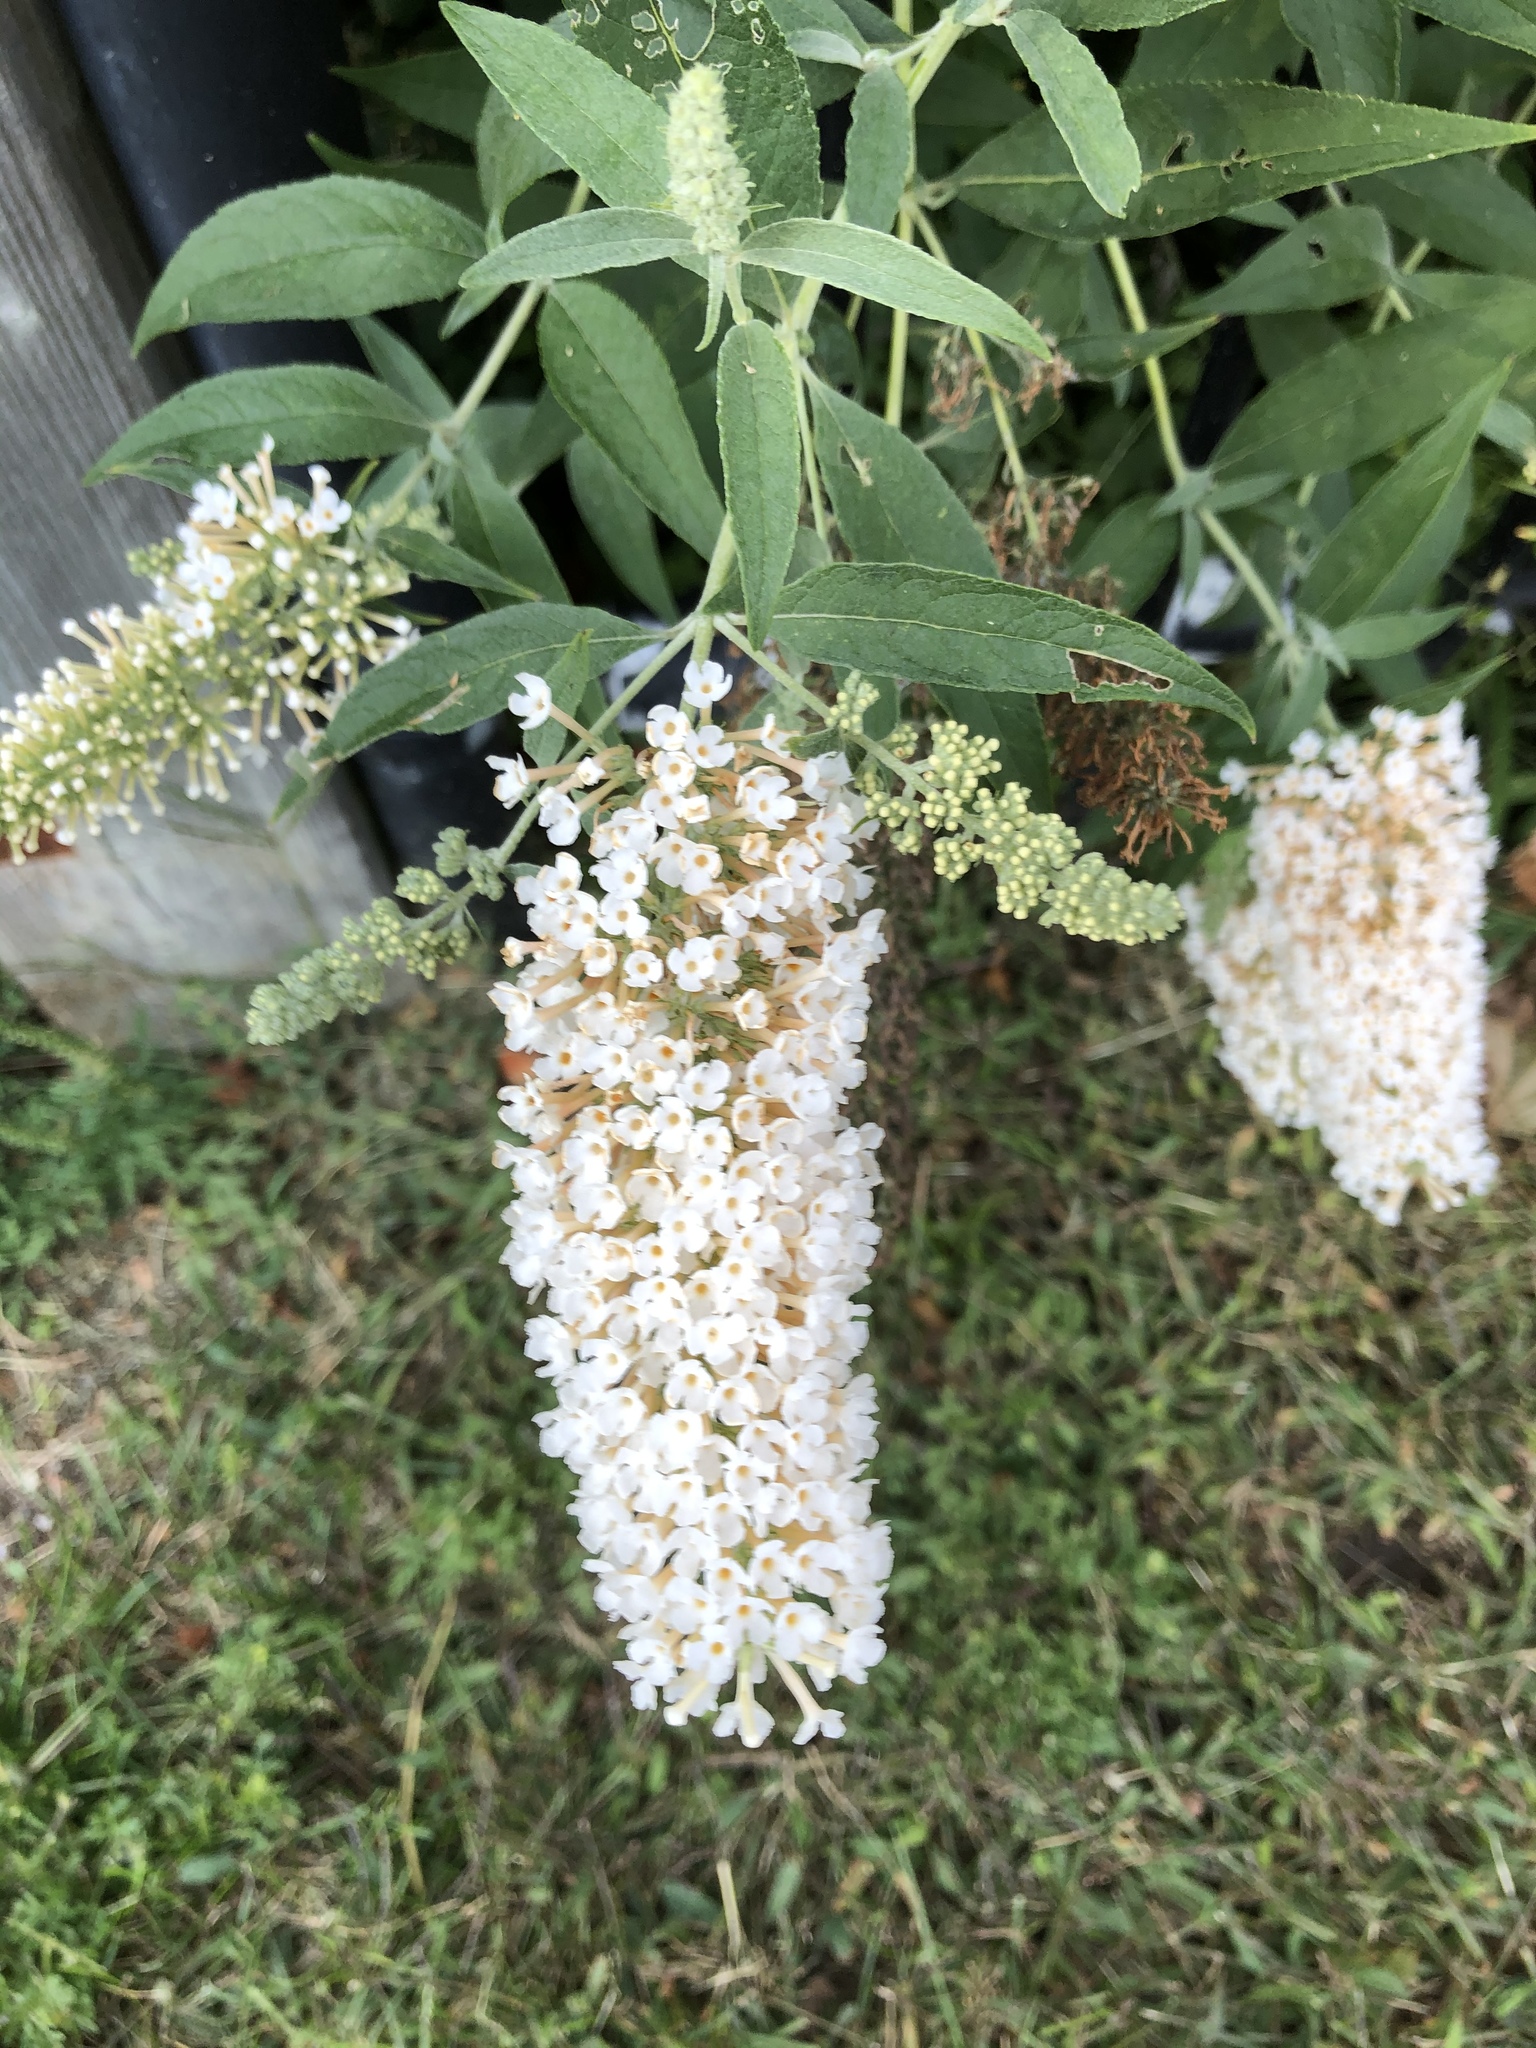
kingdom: Plantae
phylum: Tracheophyta
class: Magnoliopsida
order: Lamiales
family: Scrophulariaceae
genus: Buddleja
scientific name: Buddleja davidii
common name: Butterfly-bush
